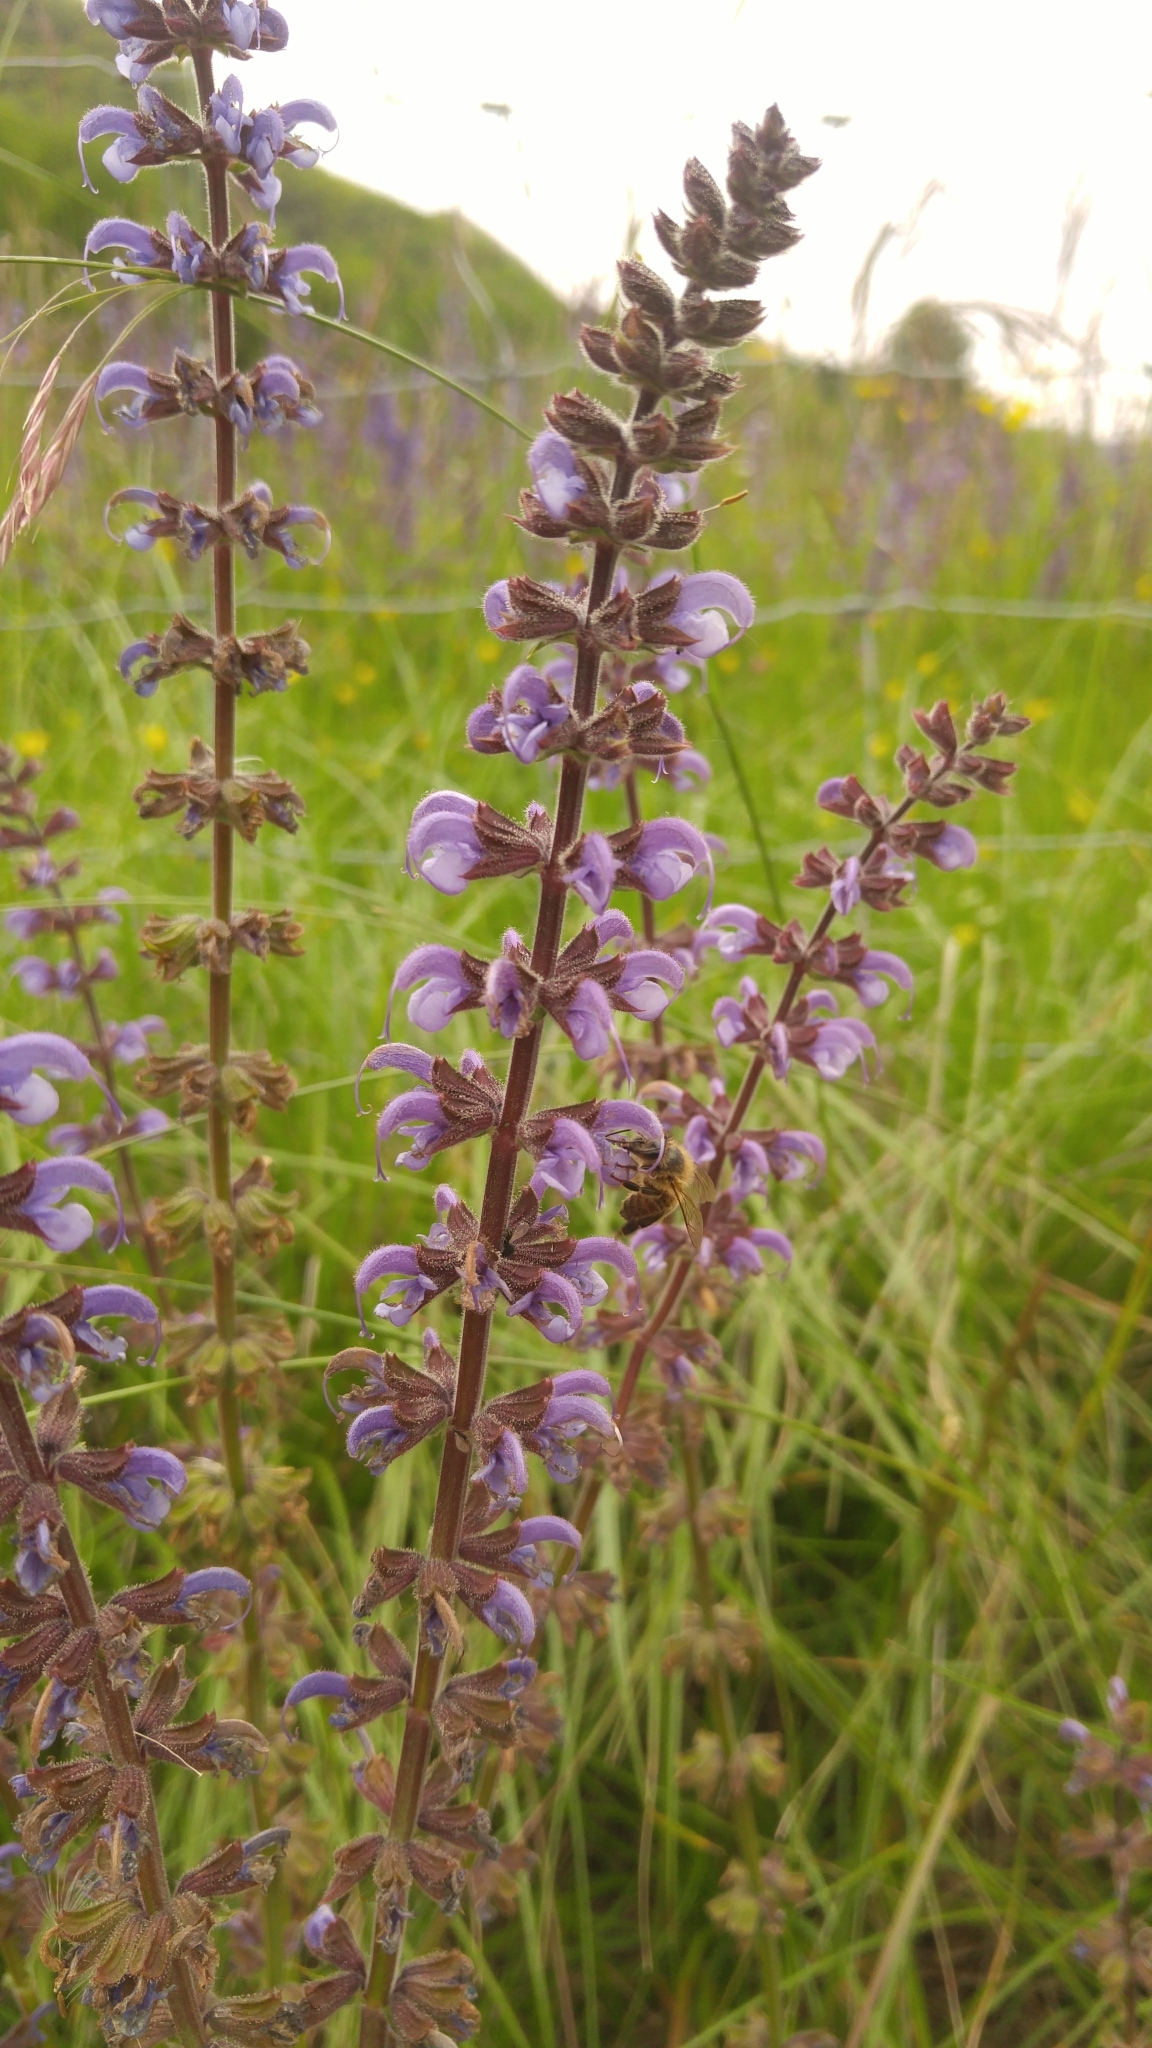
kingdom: Plantae
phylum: Tracheophyta
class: Magnoliopsida
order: Lamiales
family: Lamiaceae
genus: Salvia
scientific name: Salvia pratensis
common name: Meadow sage
